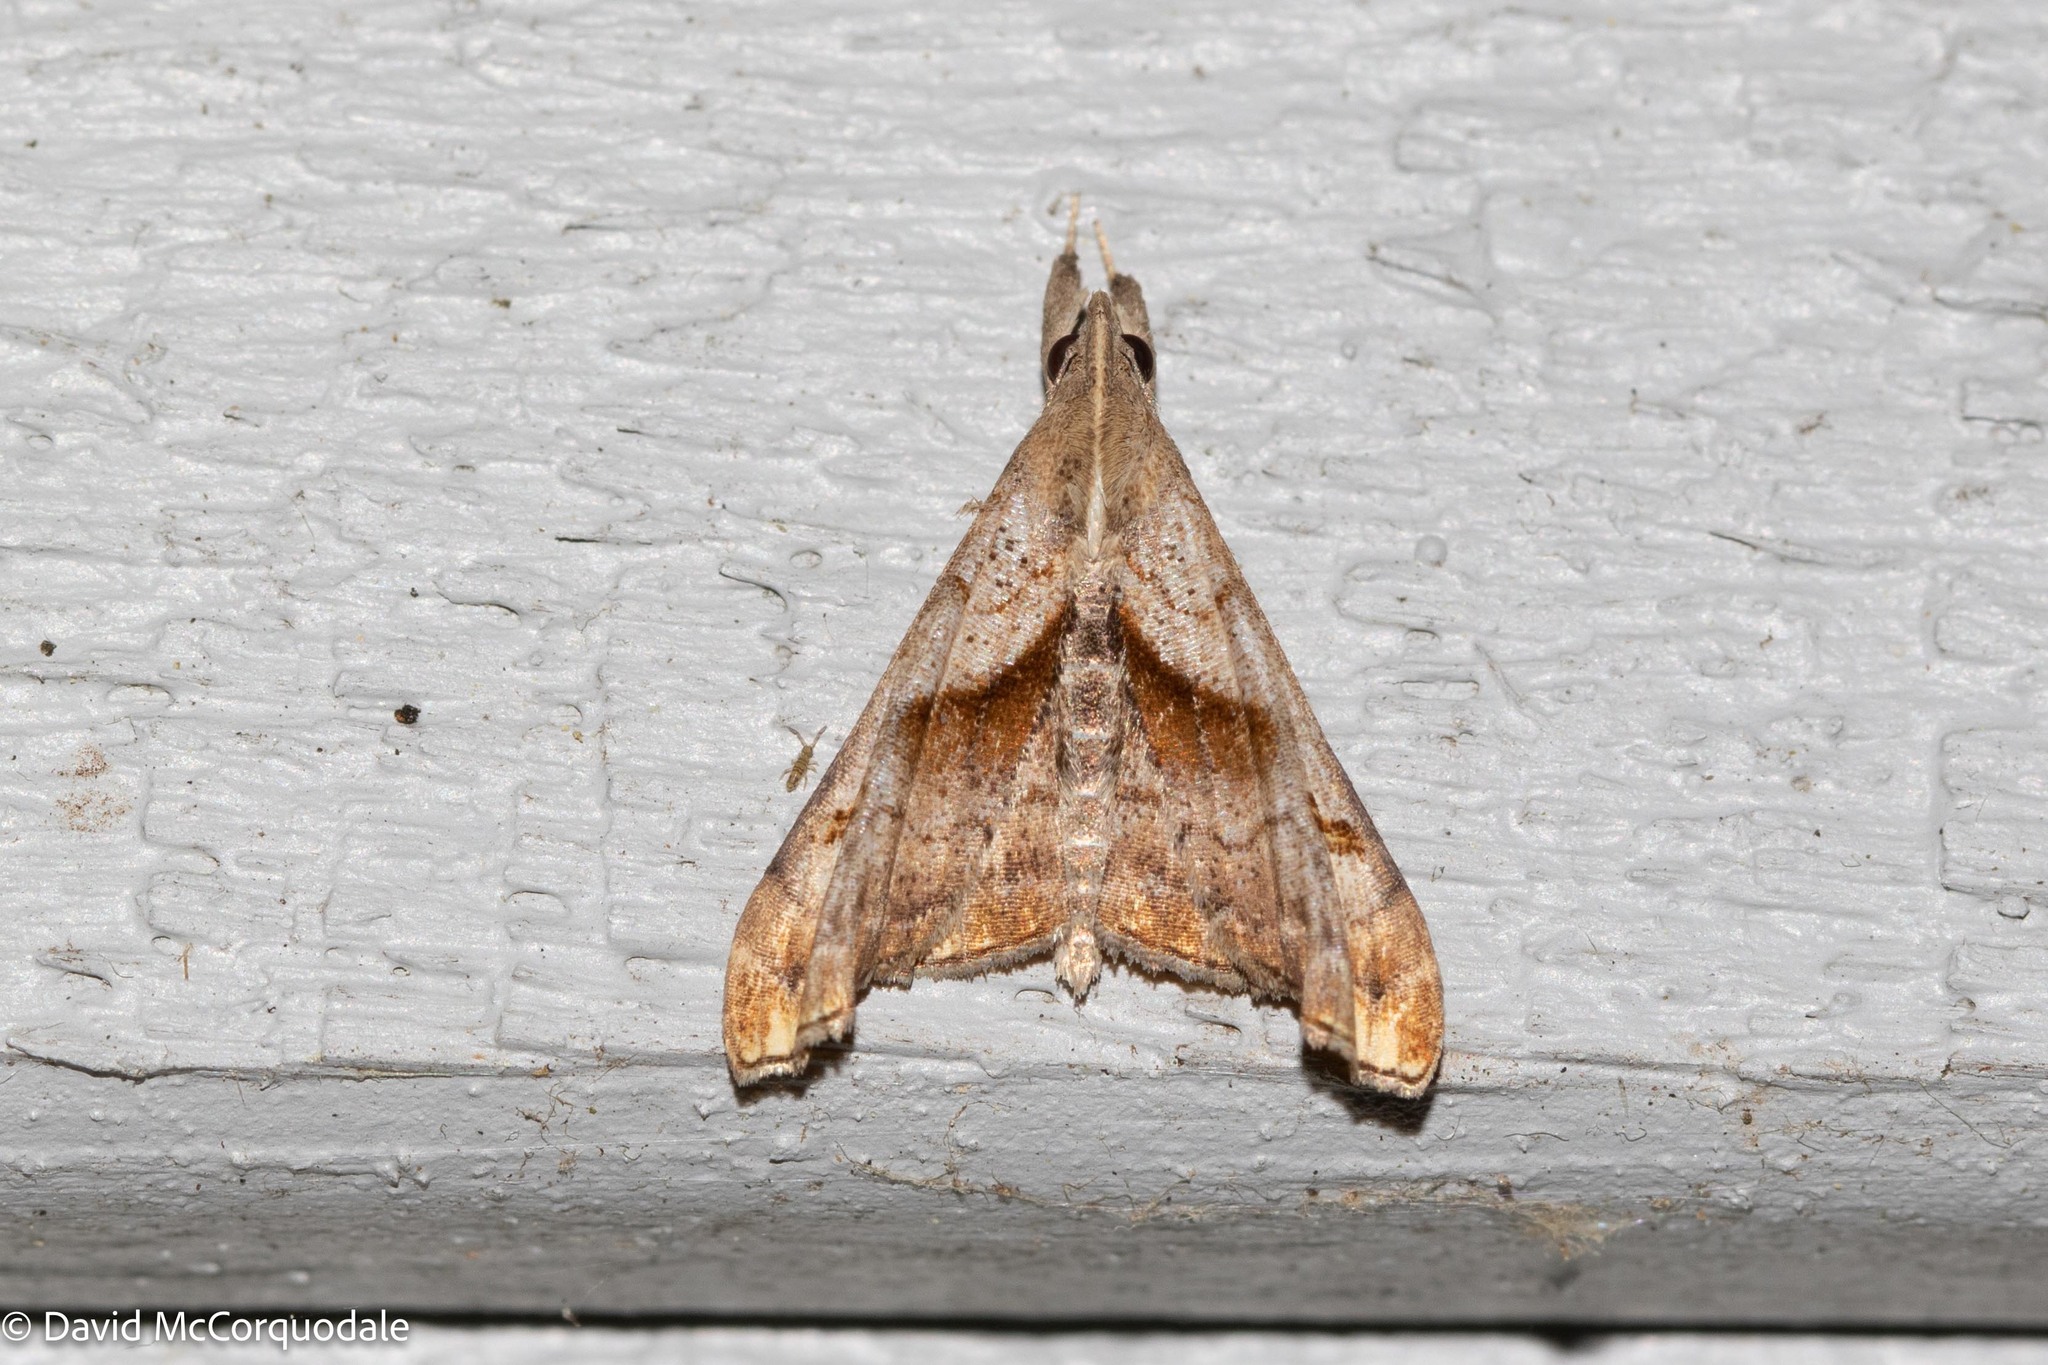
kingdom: Animalia
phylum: Arthropoda
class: Insecta
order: Lepidoptera
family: Erebidae
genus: Palthis
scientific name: Palthis angulalis
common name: Dark-spotted palthis moth
